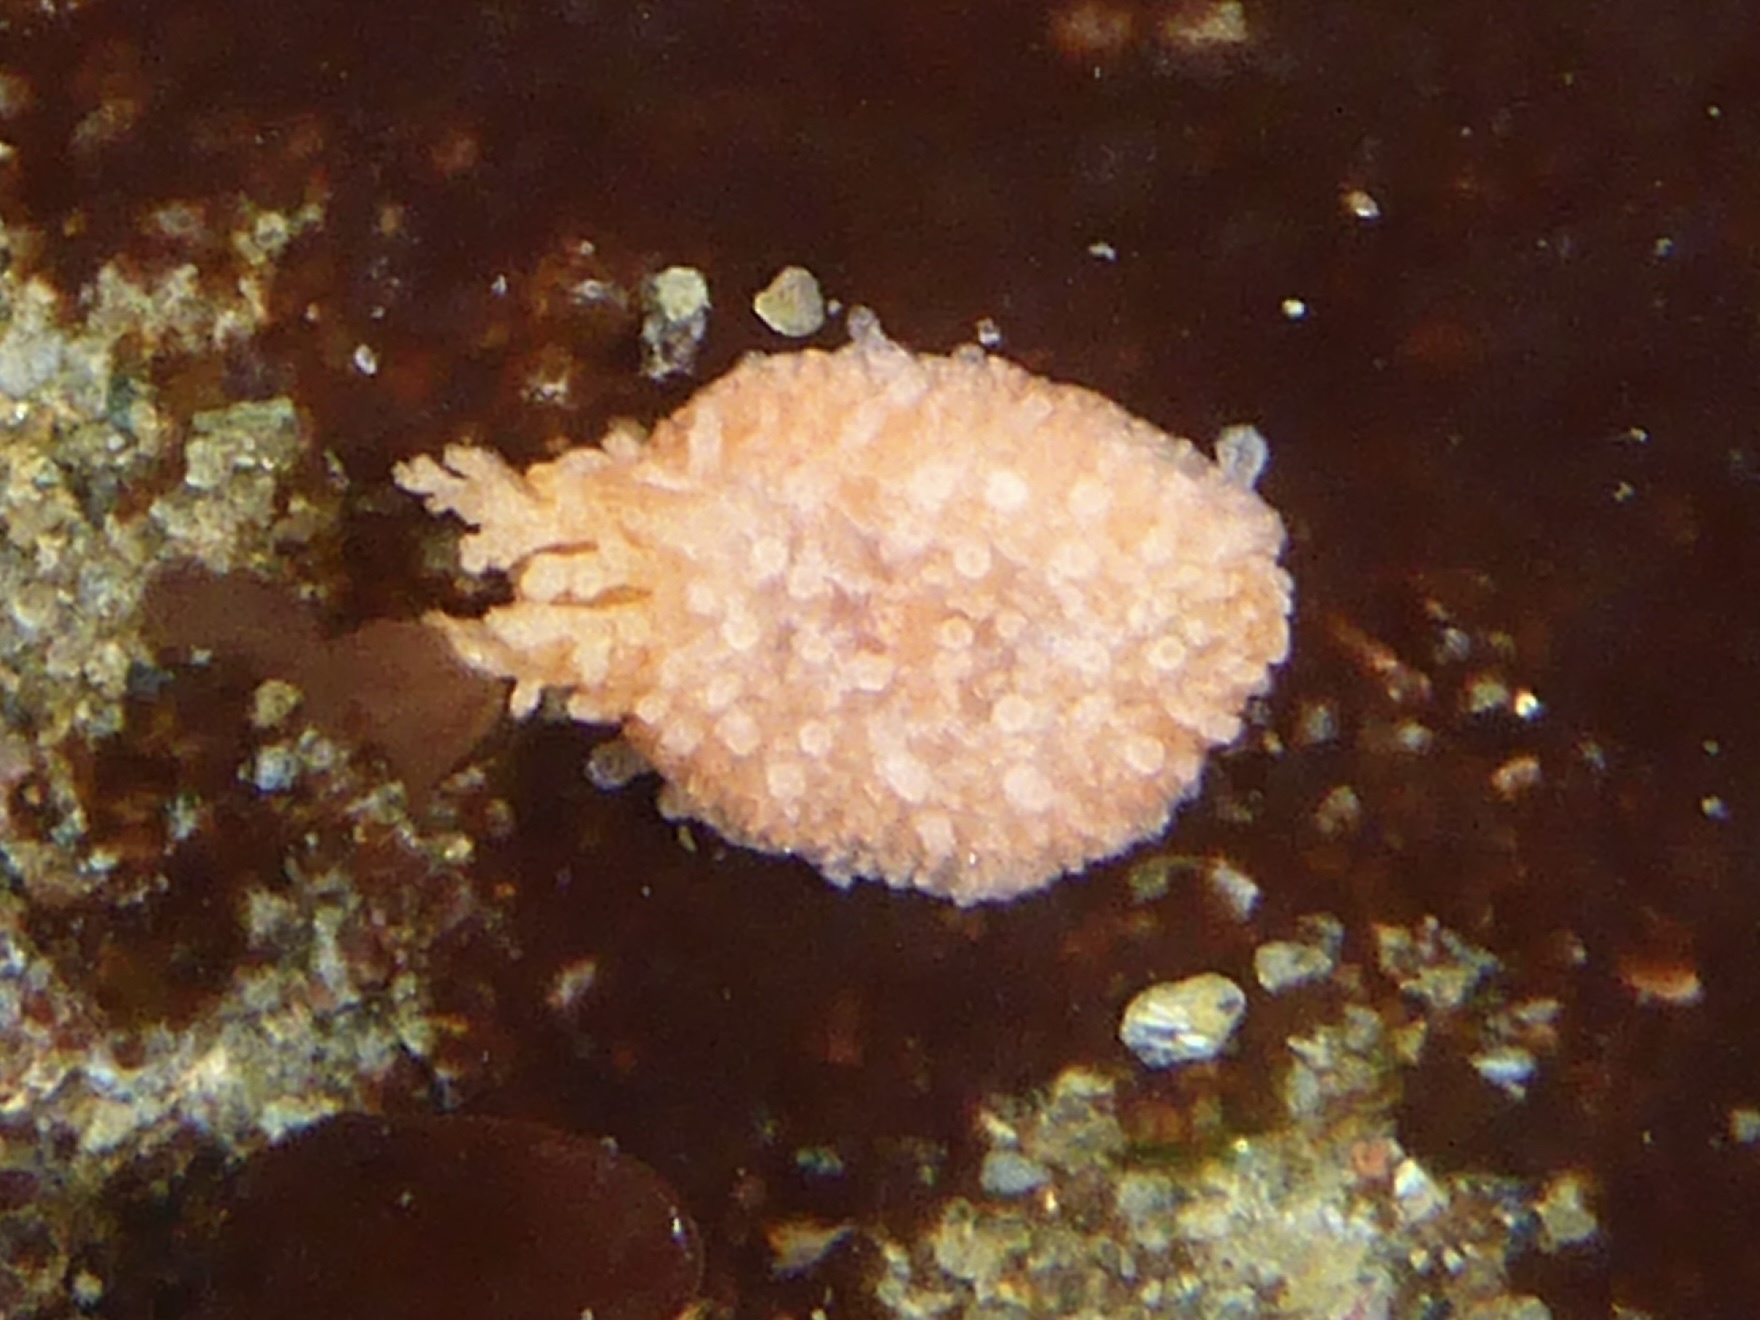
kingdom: Animalia
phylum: Echinodermata
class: Holothuroidea
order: Dendrochirotida
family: Psolidae
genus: Lissothuria
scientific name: Lissothuria nutriens
